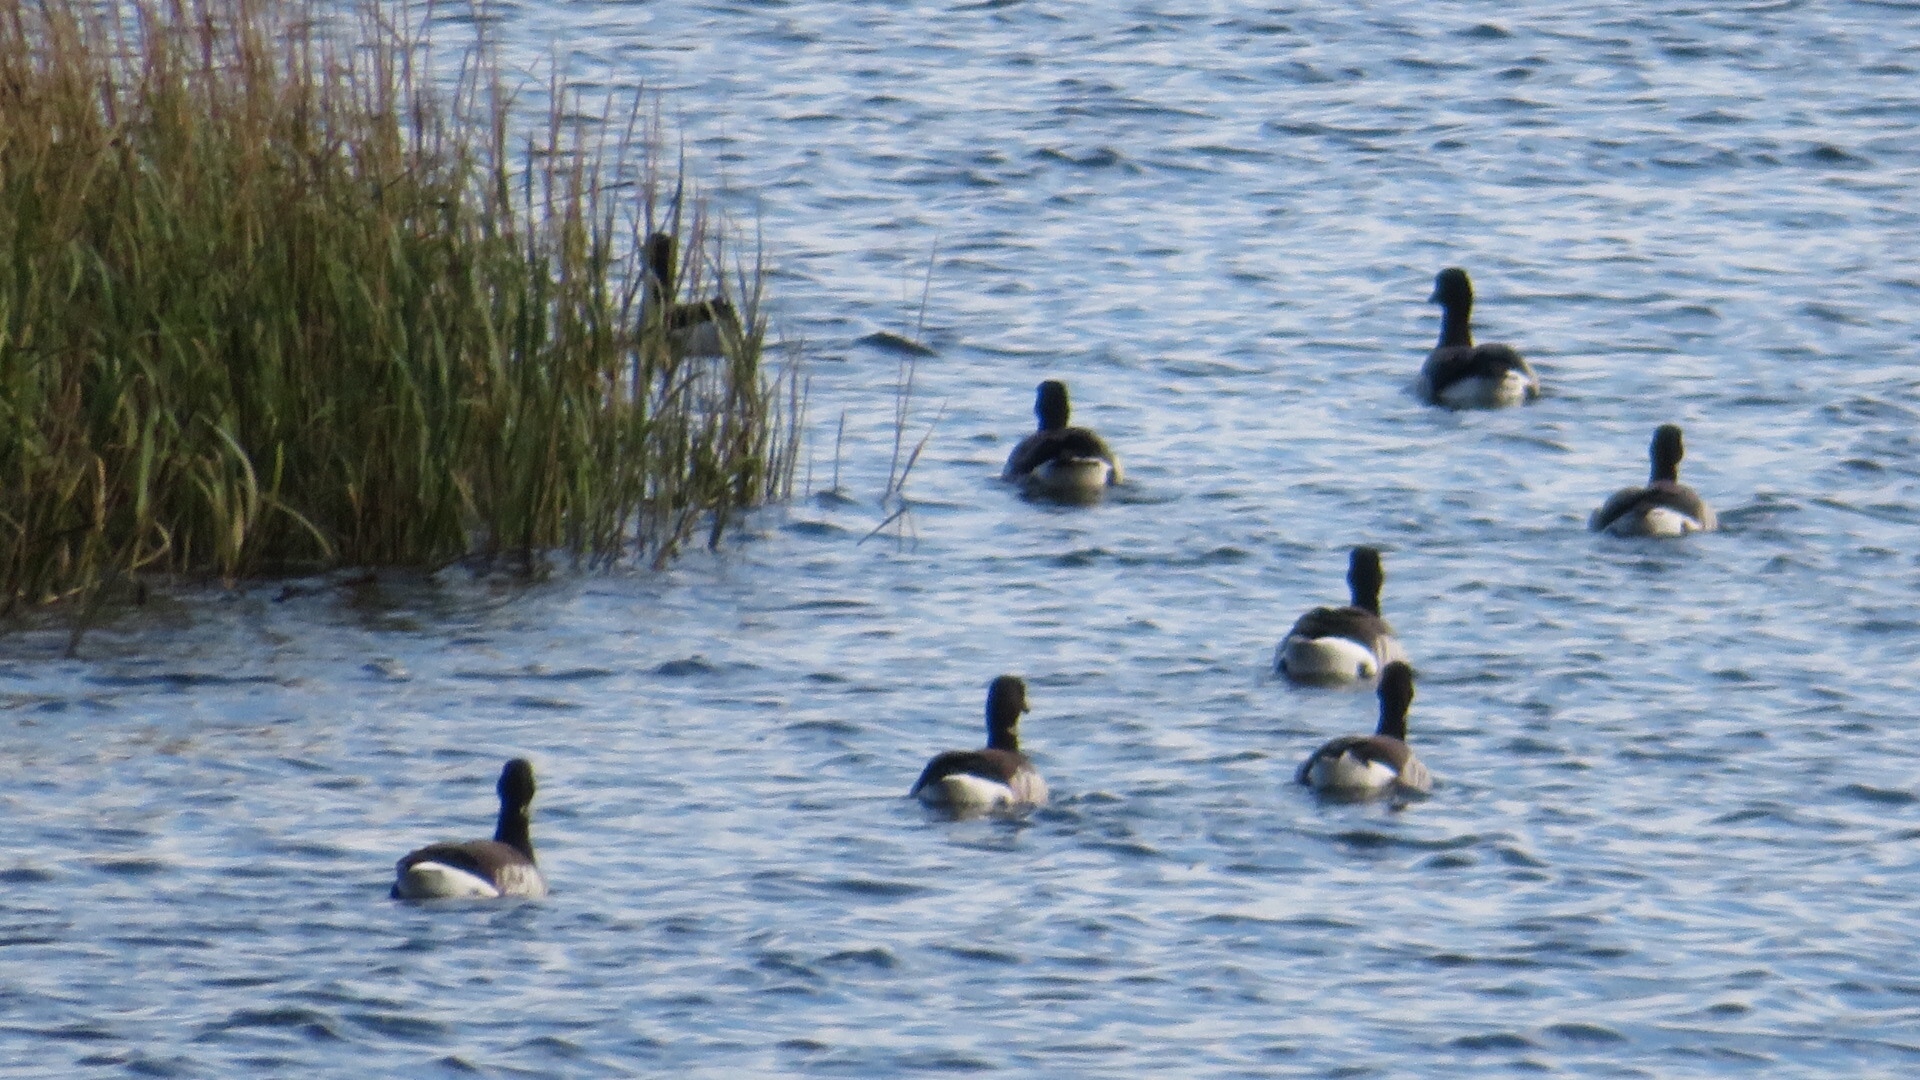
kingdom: Animalia
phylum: Chordata
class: Aves
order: Anseriformes
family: Anatidae
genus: Branta
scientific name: Branta bernicla
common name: Brant goose
